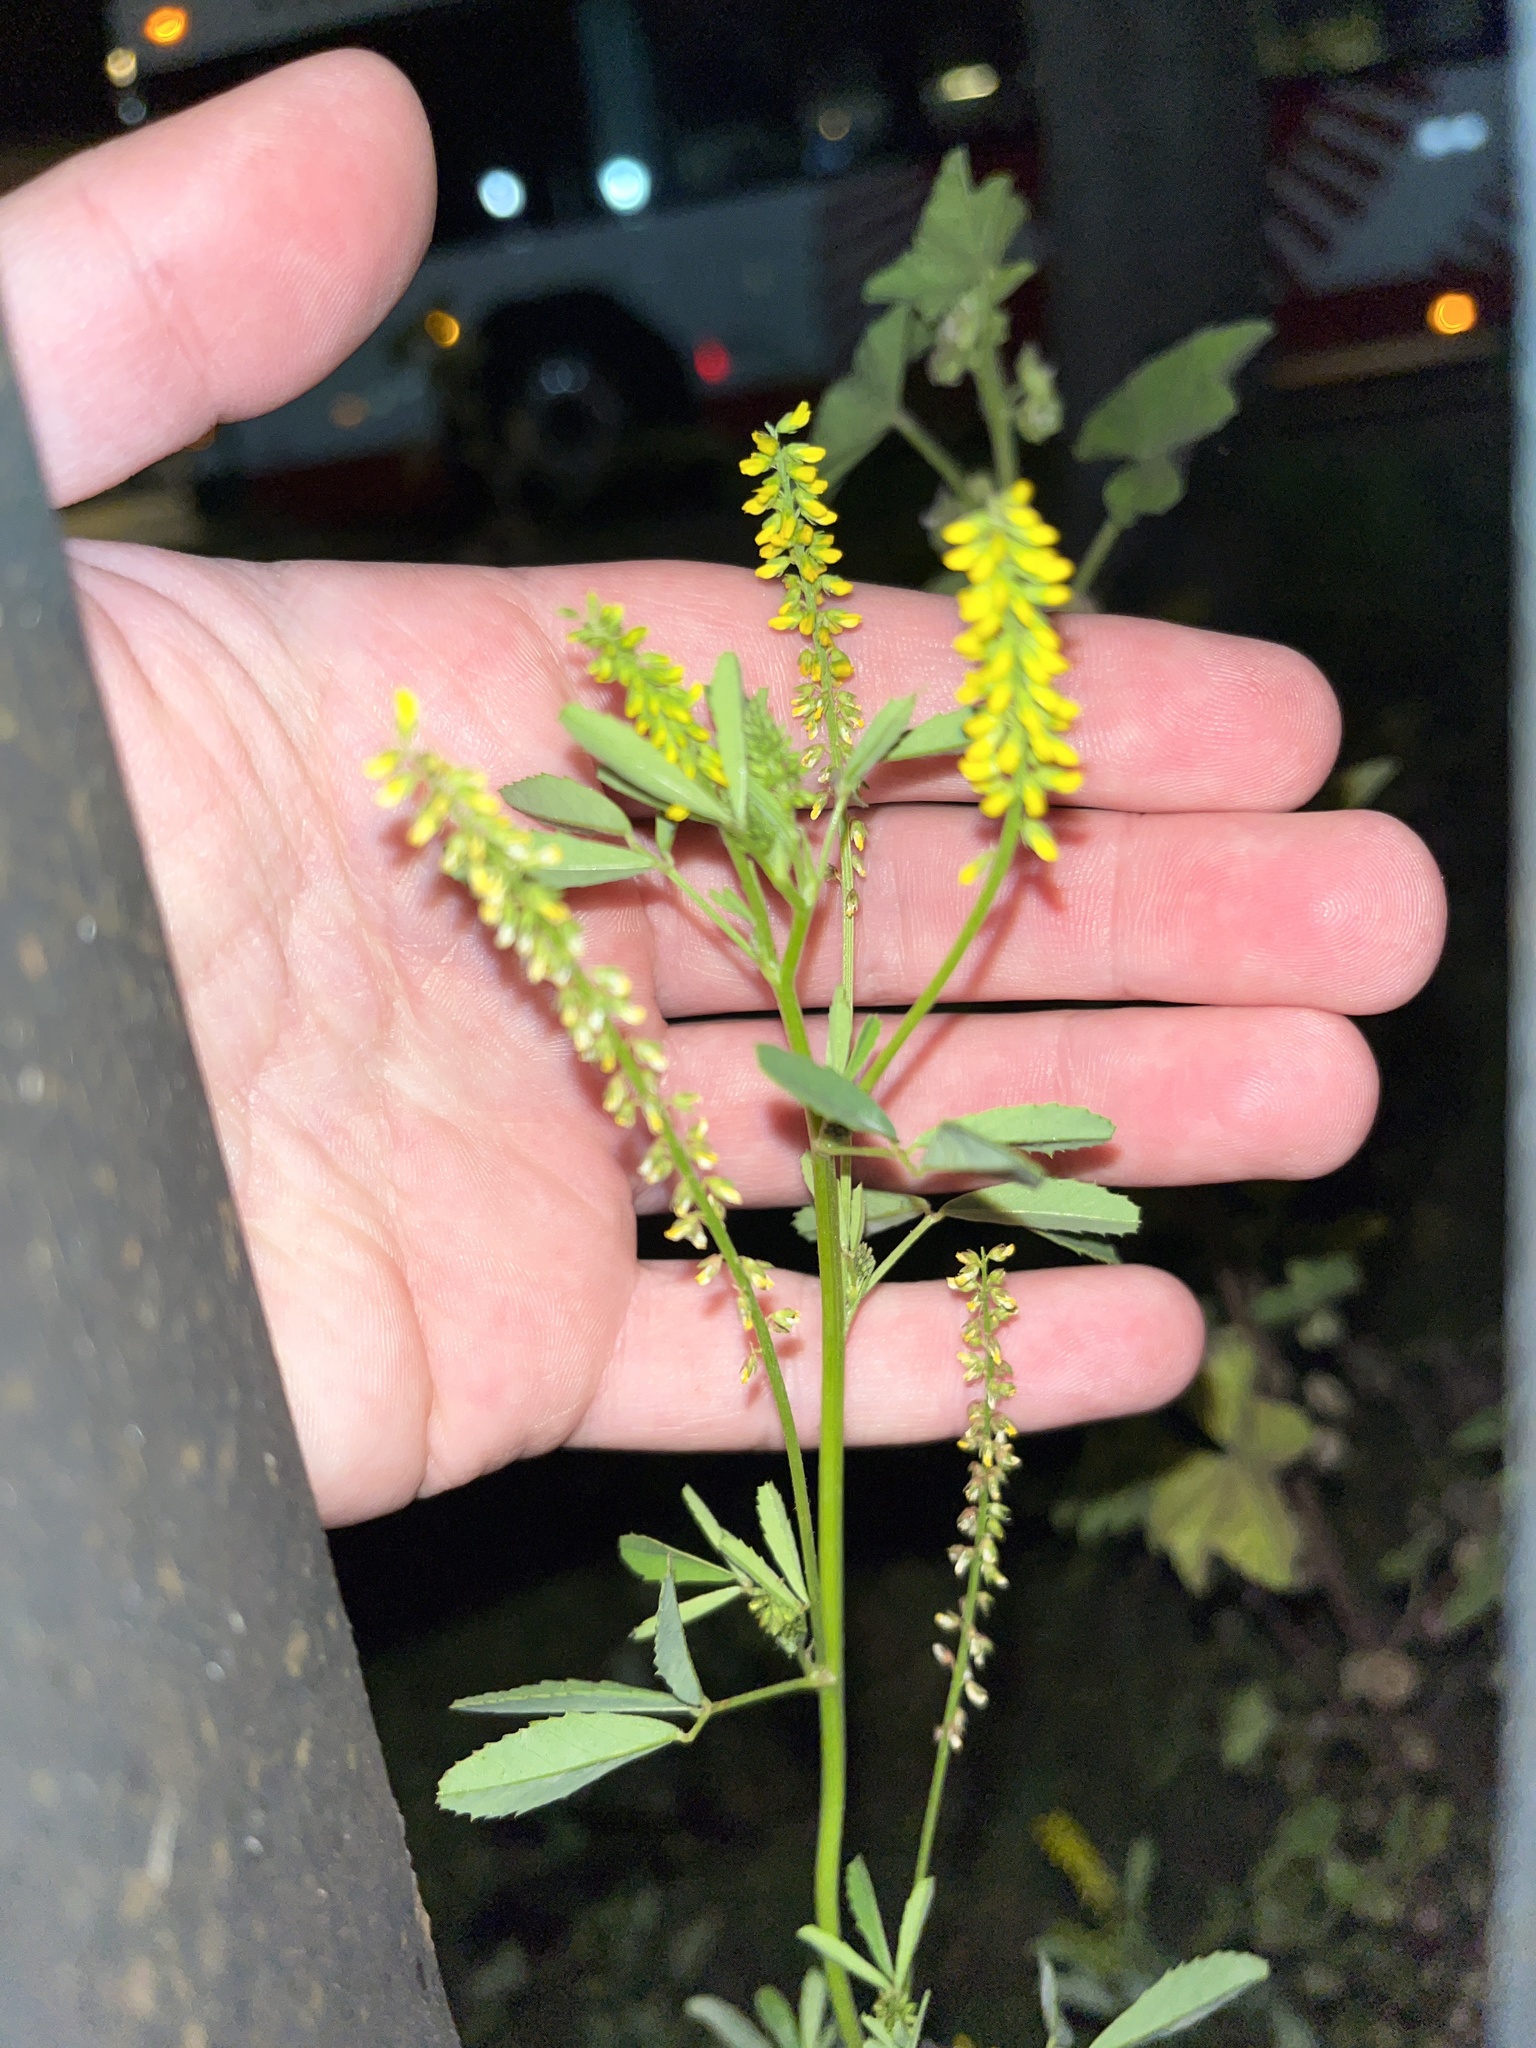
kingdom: Plantae
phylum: Tracheophyta
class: Magnoliopsida
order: Fabales
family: Fabaceae
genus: Melilotus
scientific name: Melilotus indicus
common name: Small melilot
